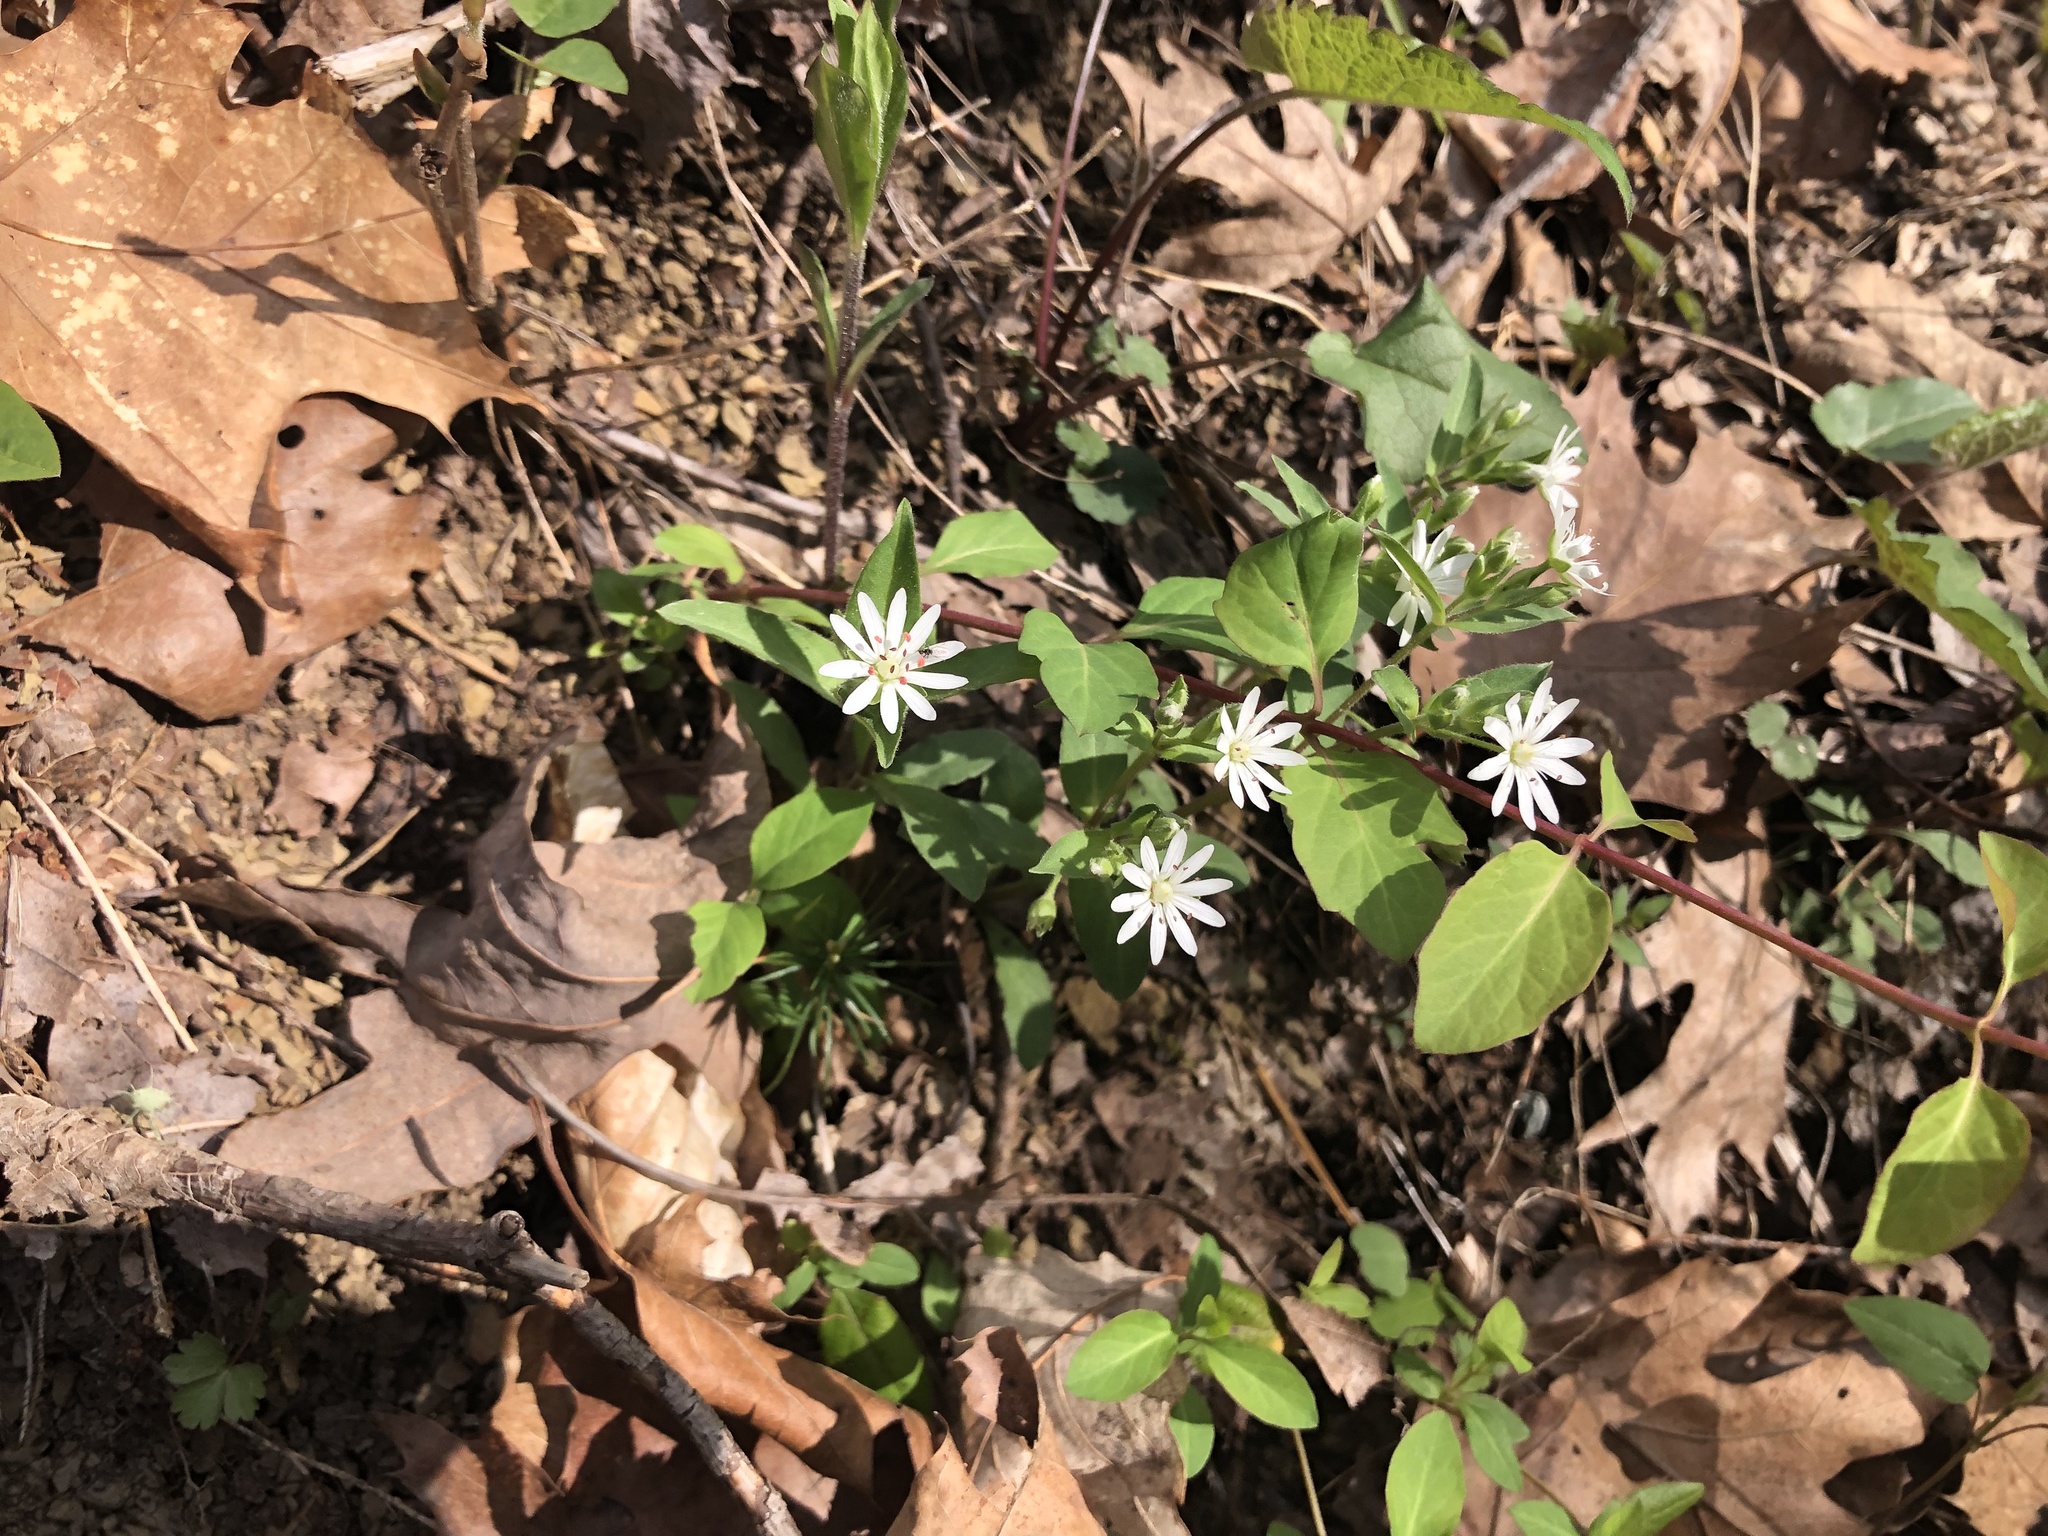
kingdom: Plantae
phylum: Tracheophyta
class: Magnoliopsida
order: Caryophyllales
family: Caryophyllaceae
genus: Stellaria
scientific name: Stellaria pubera
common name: Star chickweed
